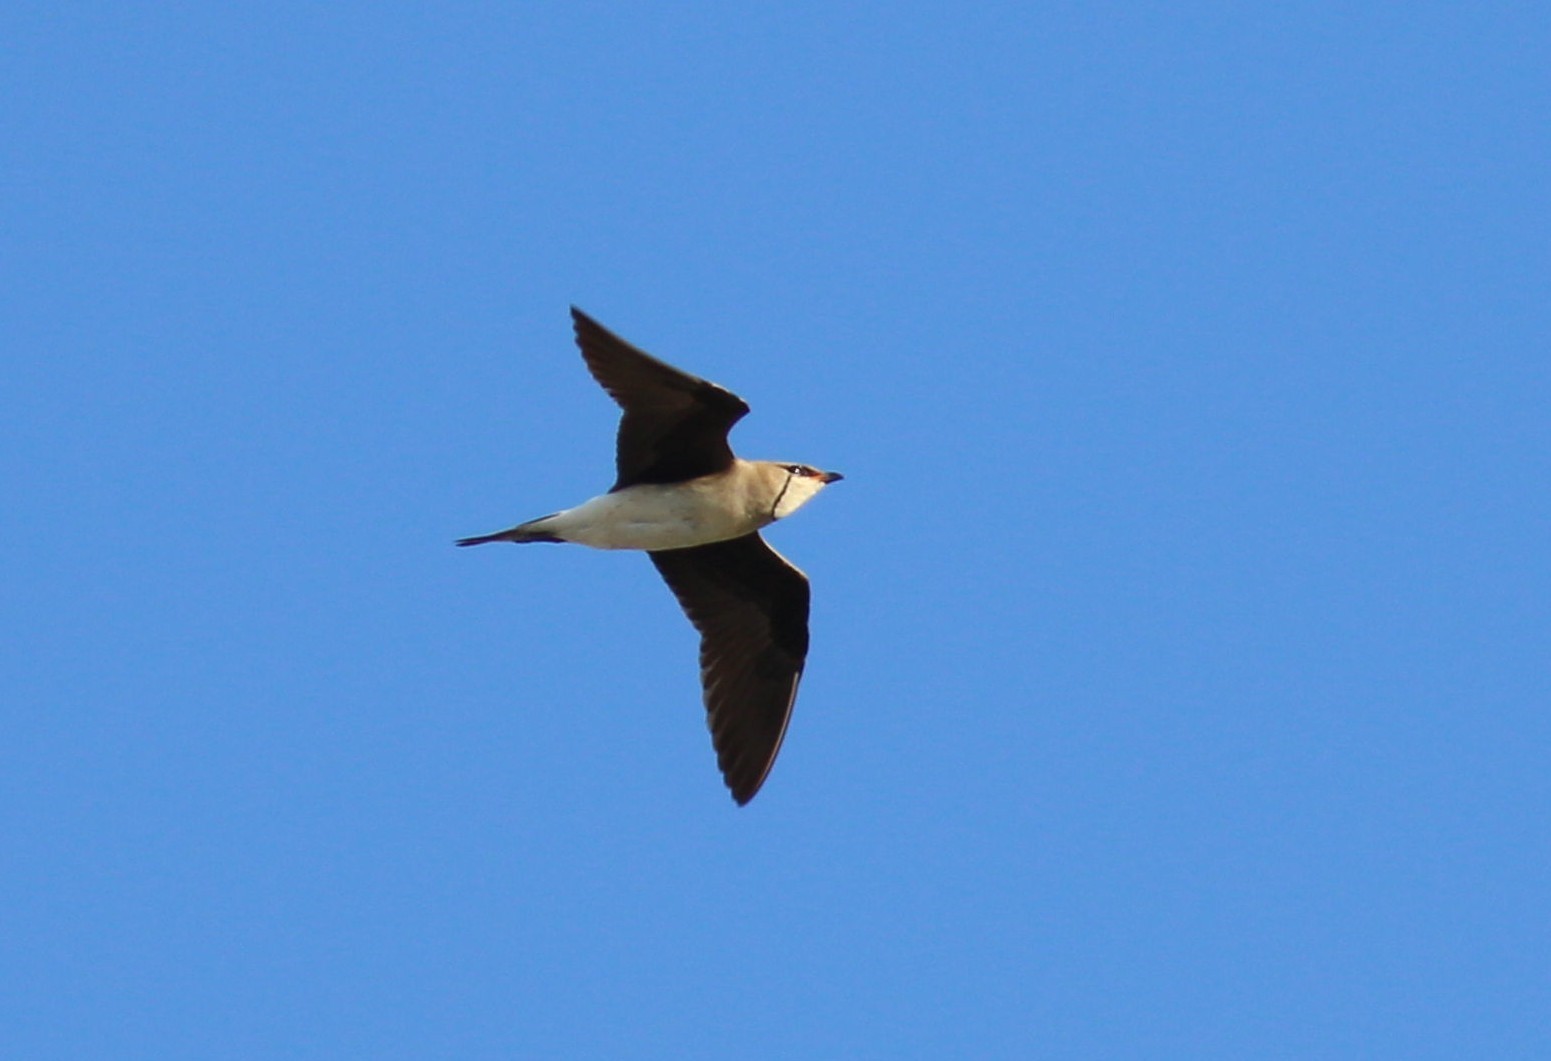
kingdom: Animalia
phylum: Chordata
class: Aves
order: Charadriiformes
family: Glareolidae
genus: Glareola
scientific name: Glareola nordmanni
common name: Black-winged pratincole
